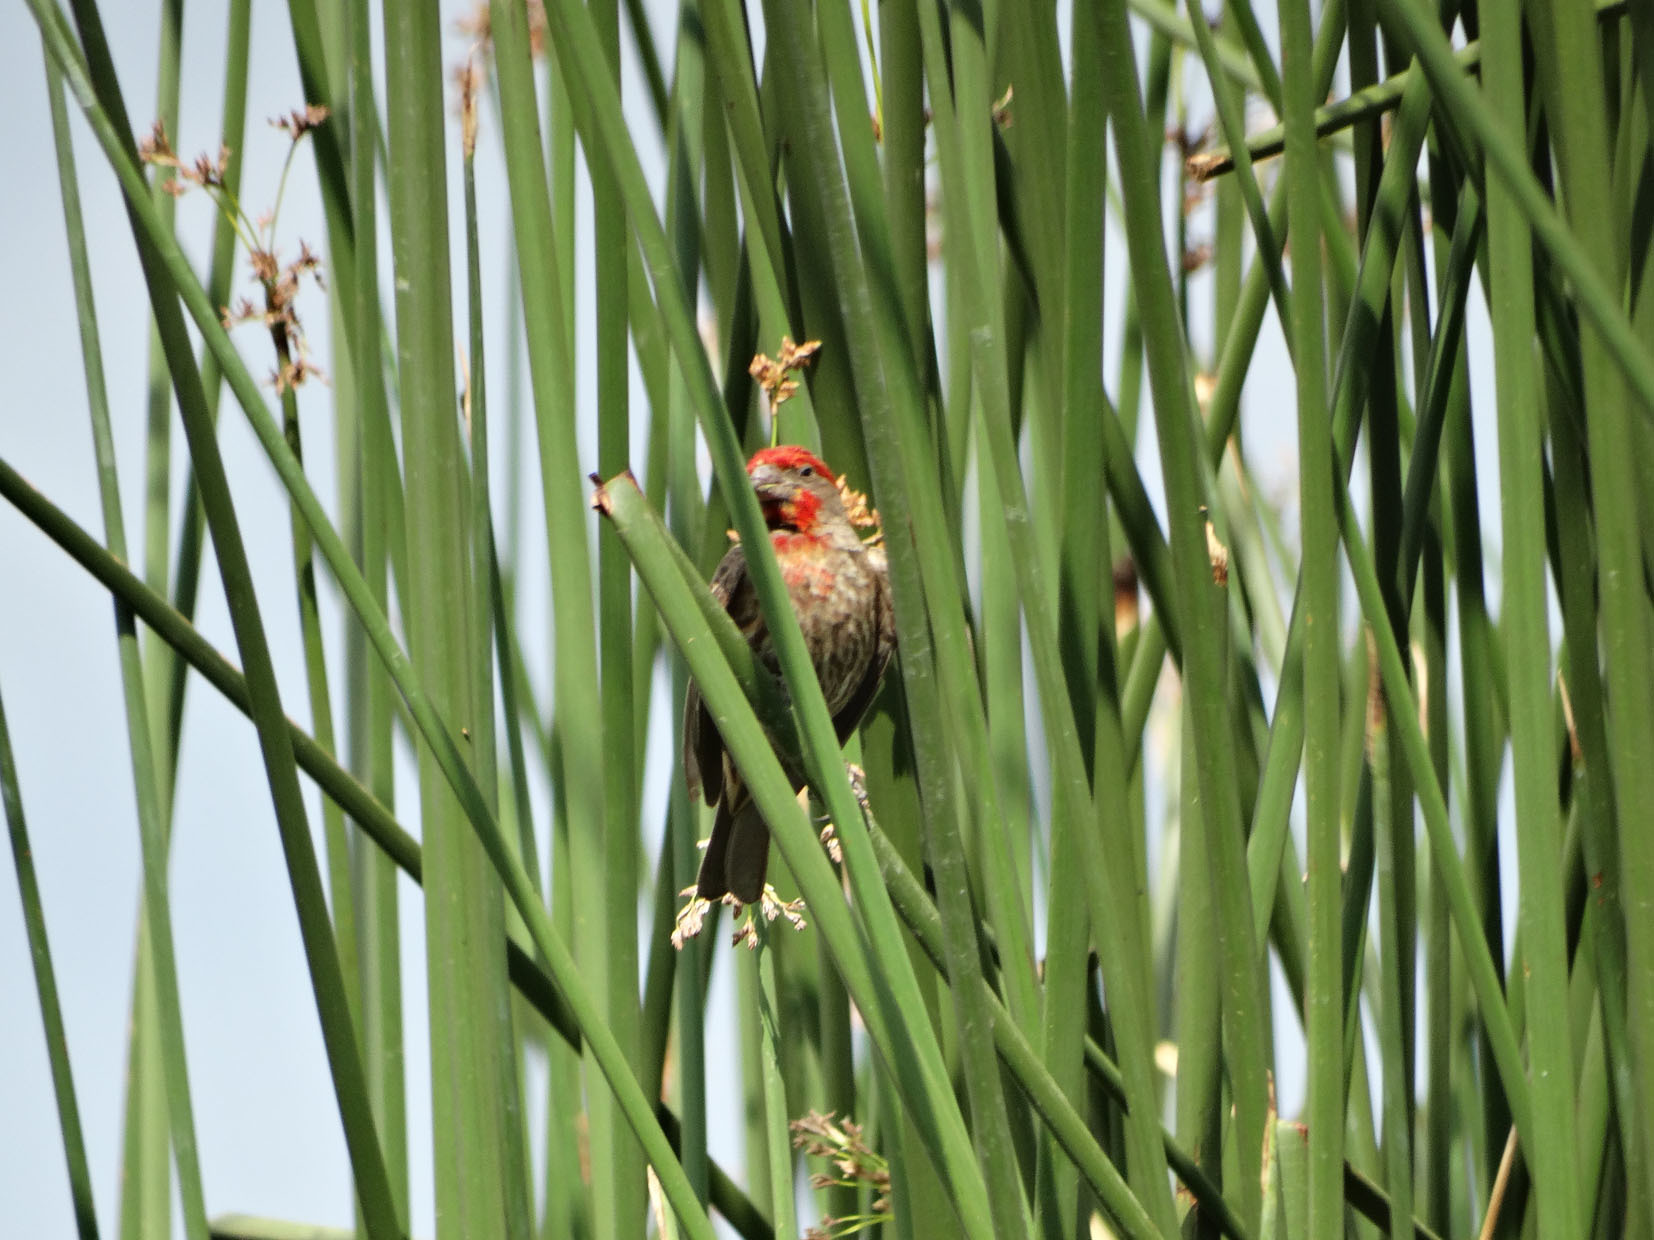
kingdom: Animalia
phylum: Chordata
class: Aves
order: Passeriformes
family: Fringillidae
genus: Haemorhous
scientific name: Haemorhous mexicanus
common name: House finch
